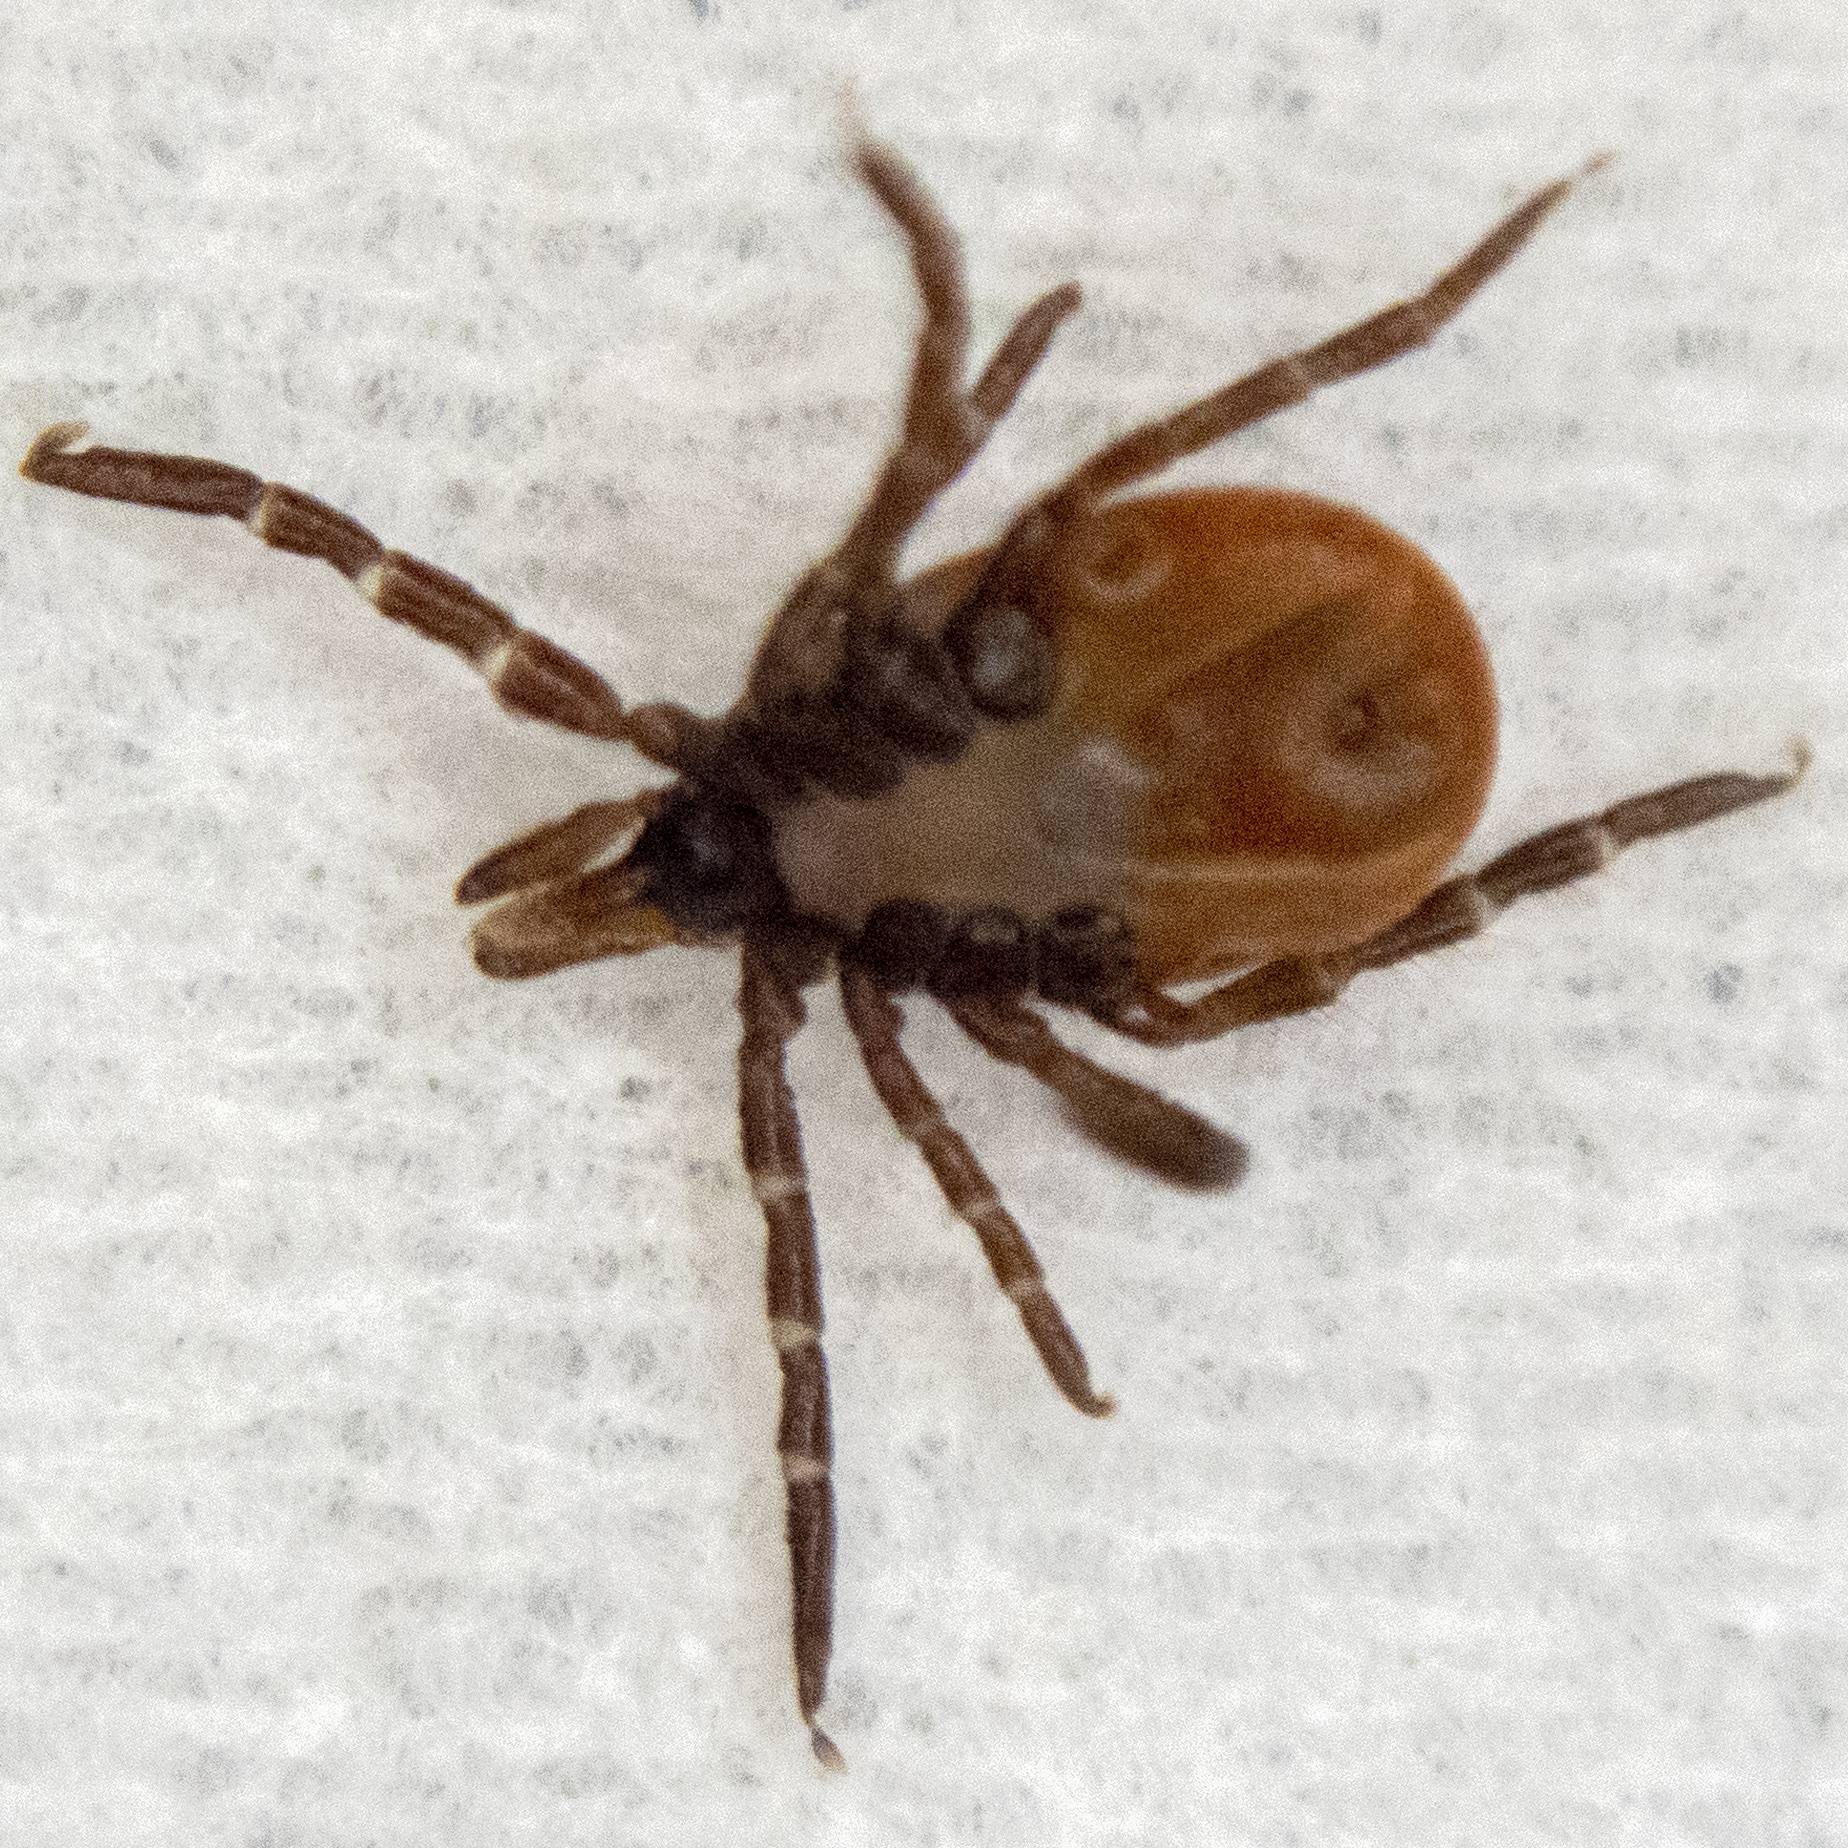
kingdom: Animalia
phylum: Arthropoda
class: Arachnida
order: Ixodida
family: Ixodidae
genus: Ixodes
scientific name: Ixodes scapularis
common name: Black legged tick
